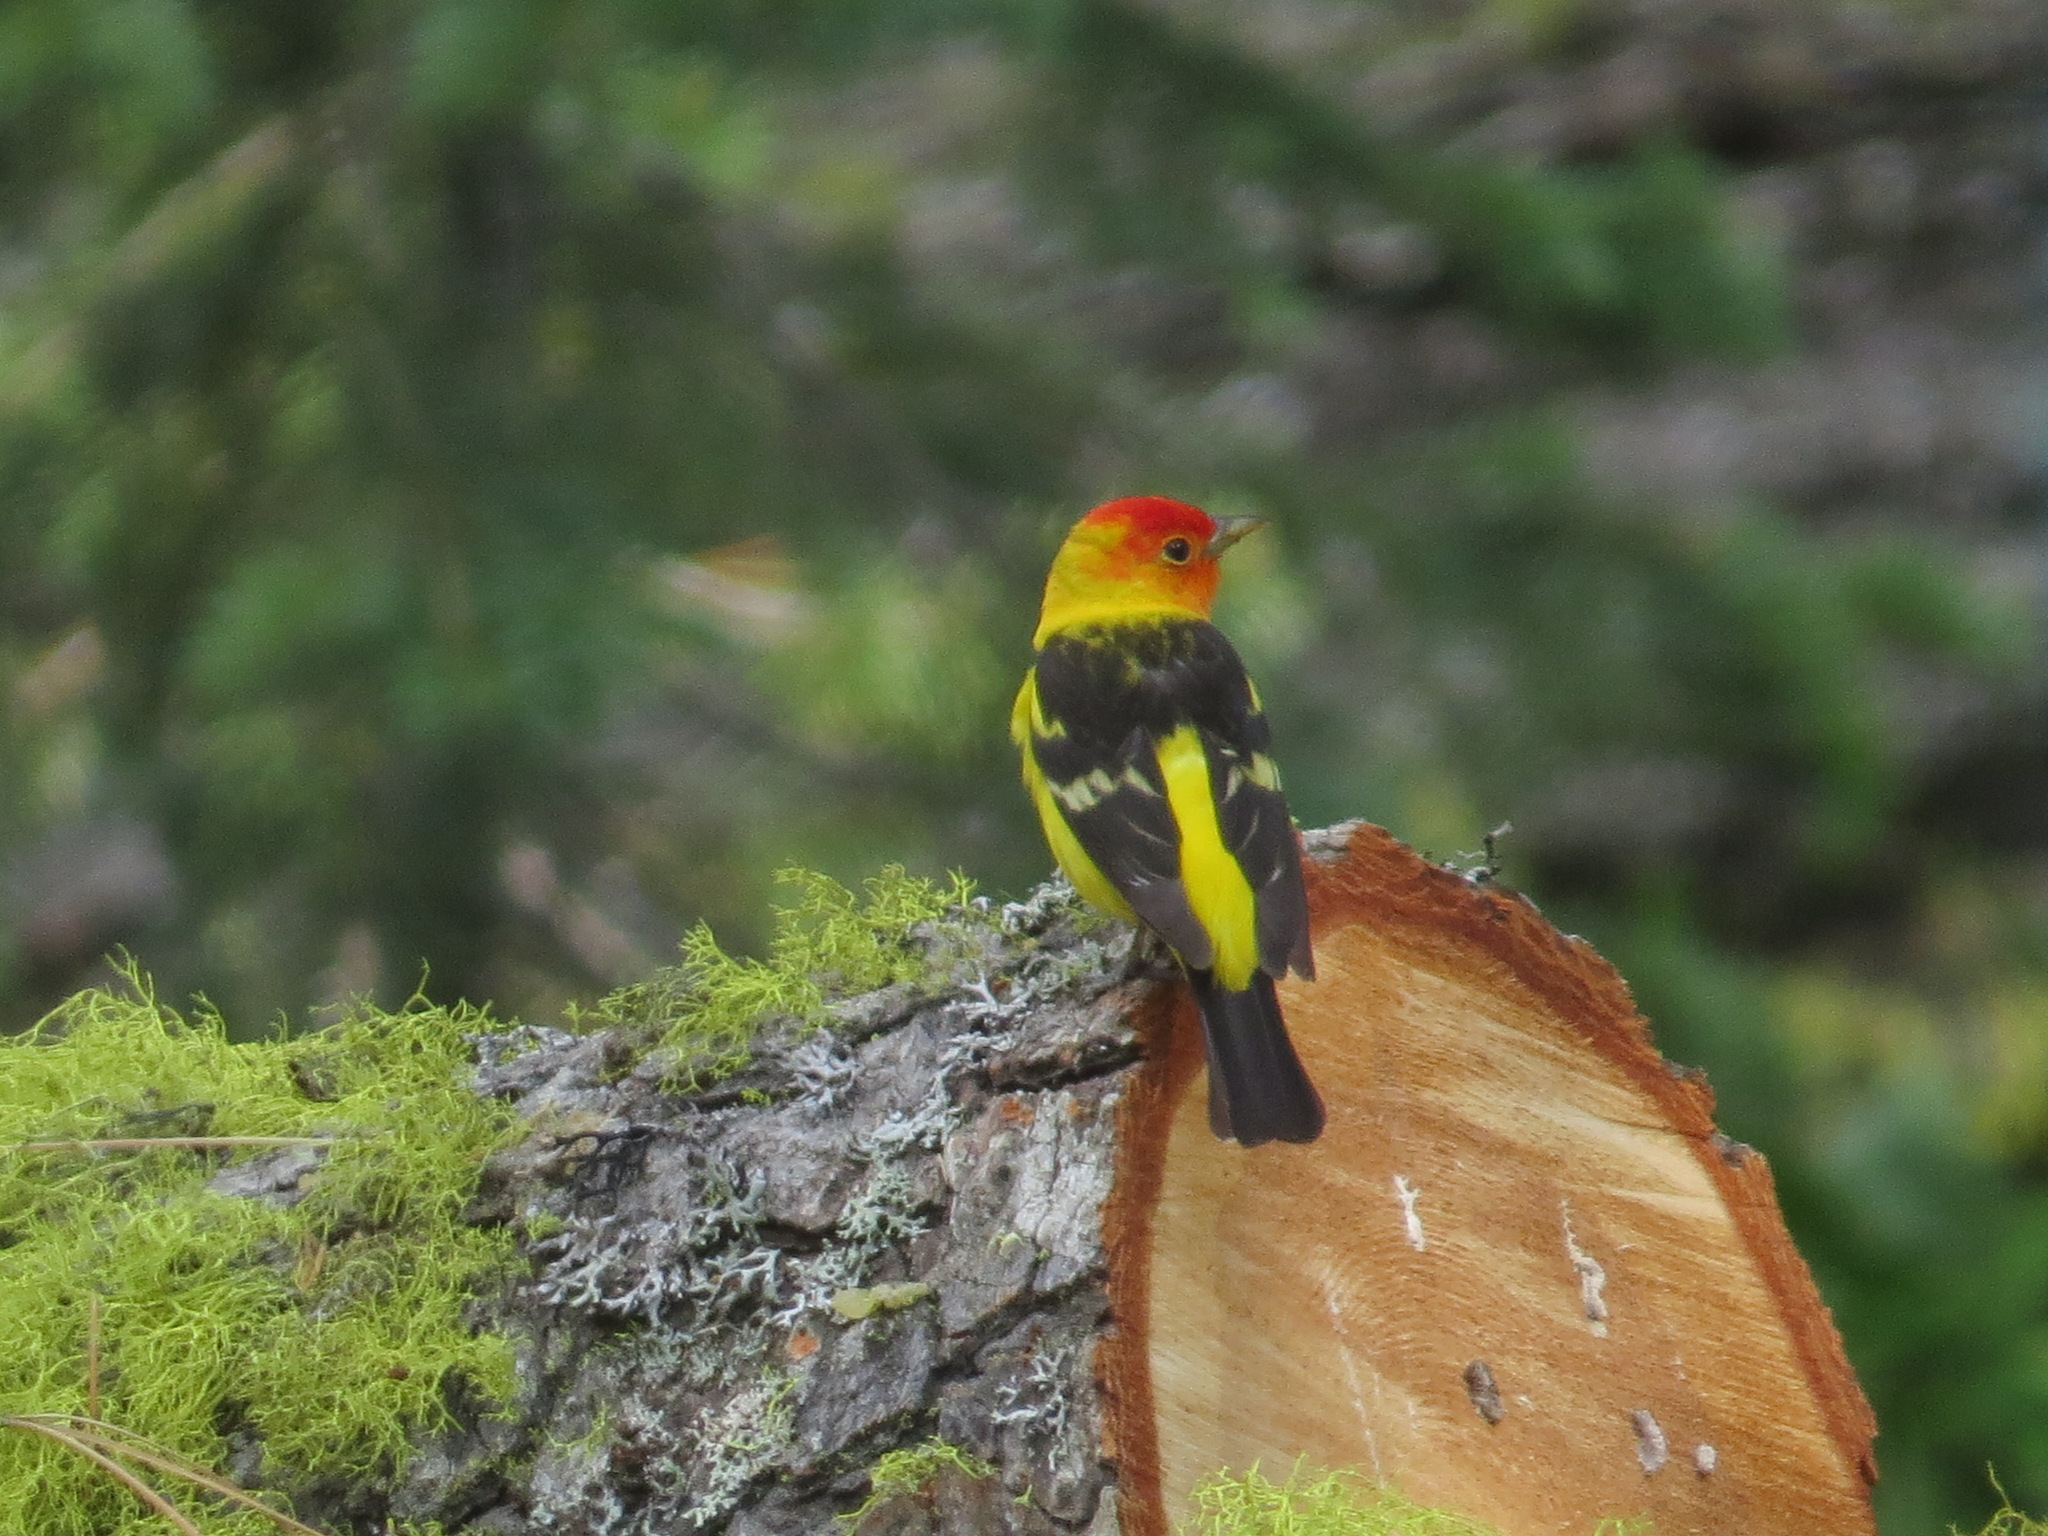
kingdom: Animalia
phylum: Chordata
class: Aves
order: Passeriformes
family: Cardinalidae
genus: Piranga
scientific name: Piranga ludoviciana
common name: Western tanager
